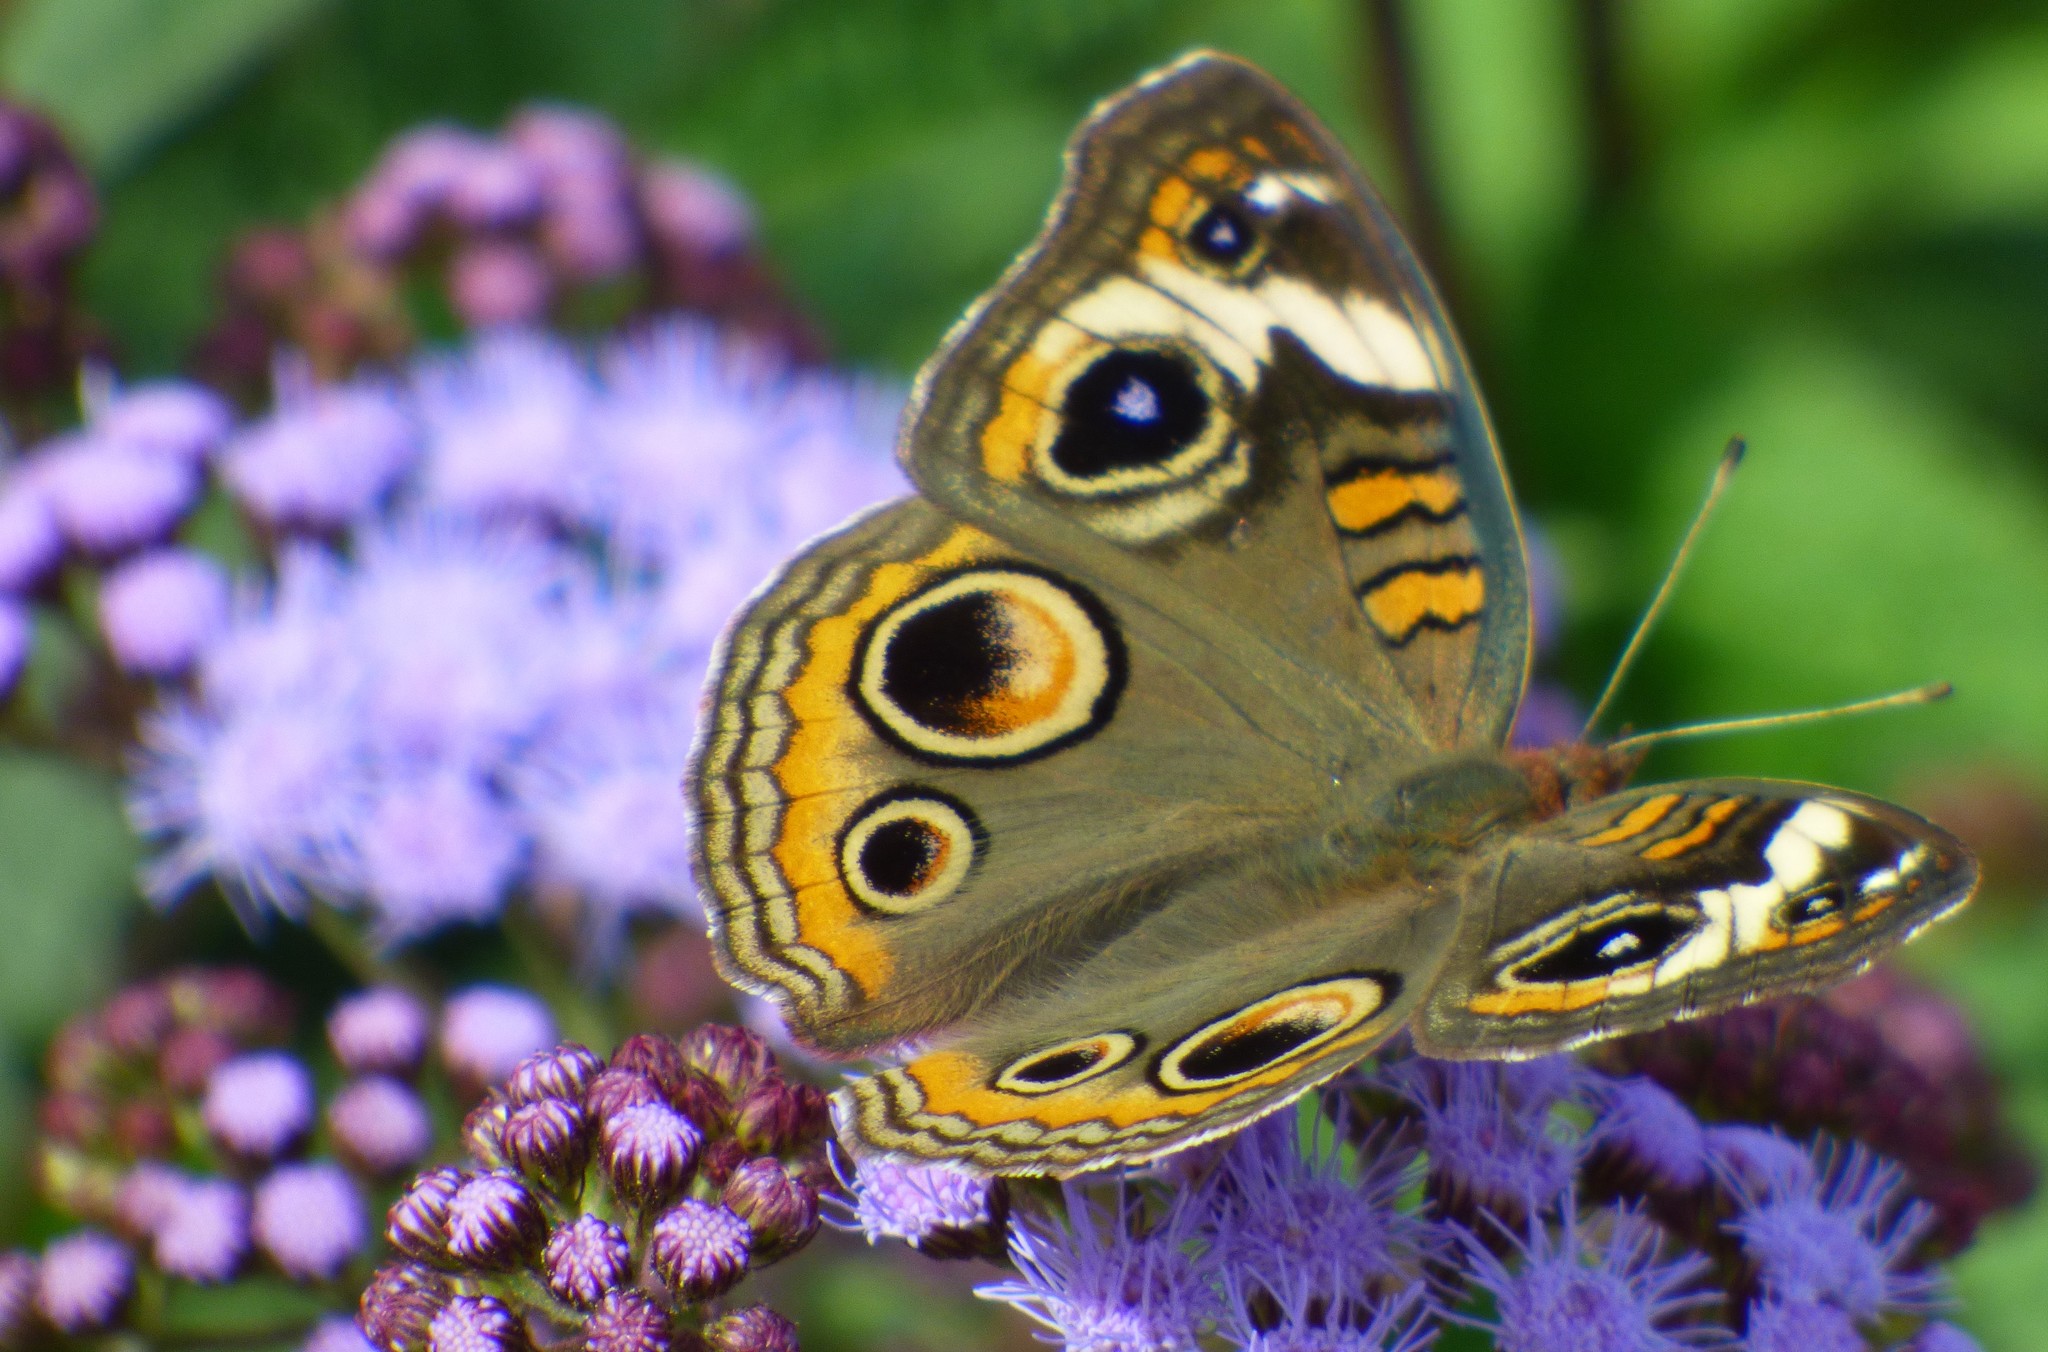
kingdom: Animalia
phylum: Arthropoda
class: Insecta
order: Lepidoptera
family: Nymphalidae
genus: Junonia
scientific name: Junonia coenia
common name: Common buckeye
